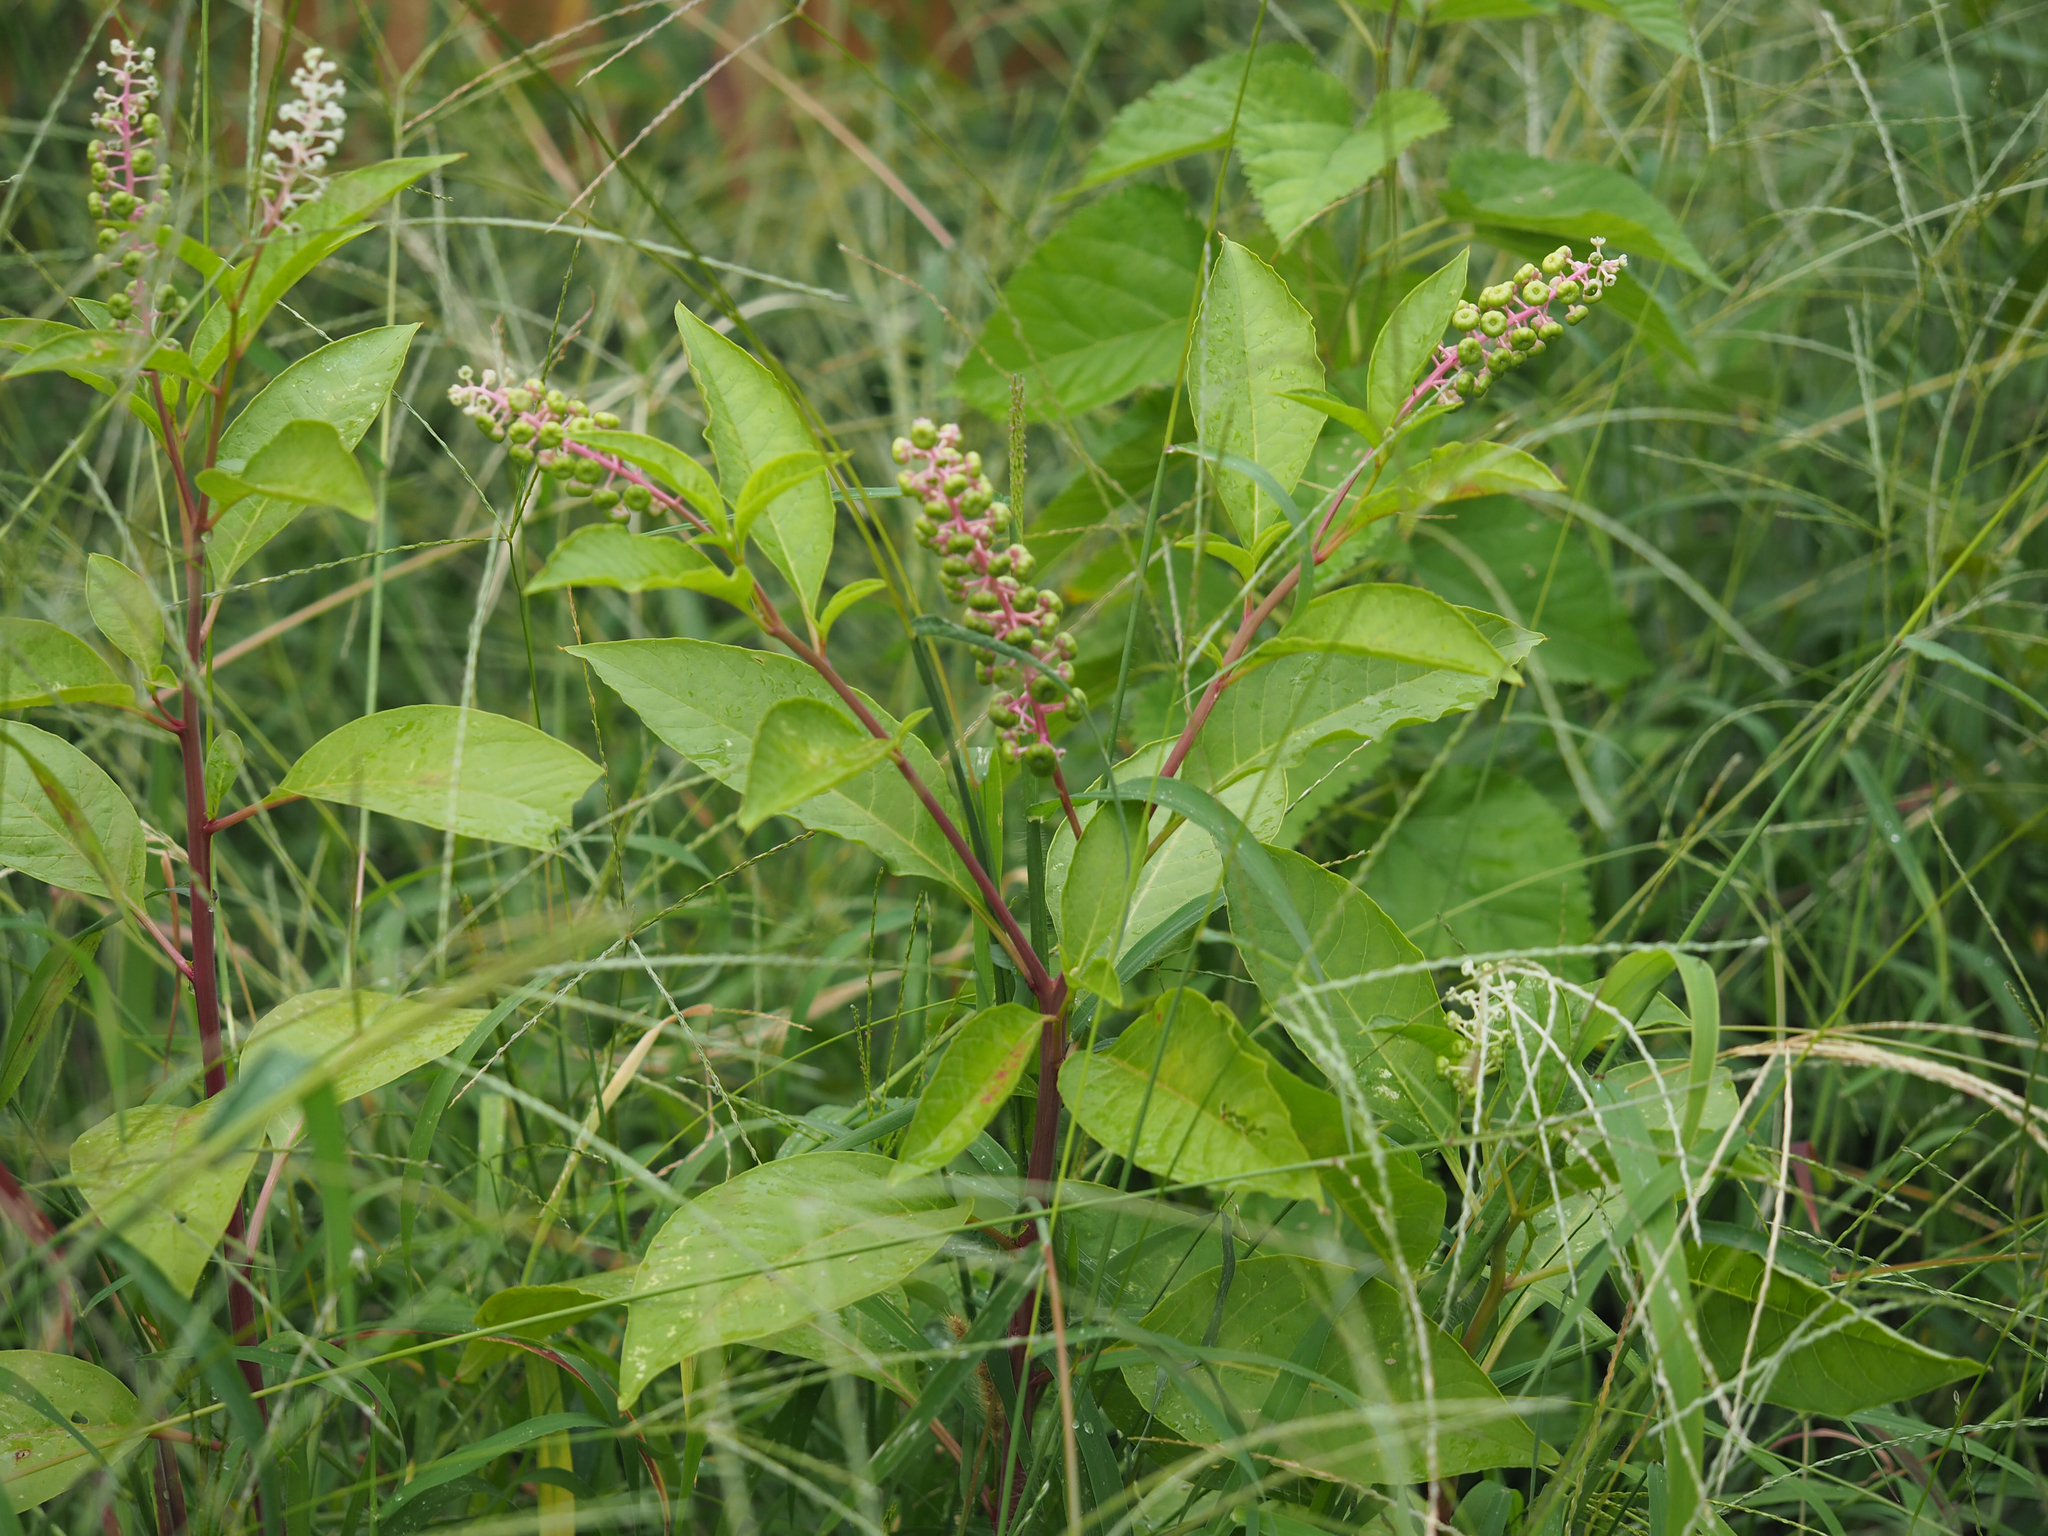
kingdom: Plantae
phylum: Tracheophyta
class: Magnoliopsida
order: Caryophyllales
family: Phytolaccaceae
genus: Phytolacca
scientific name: Phytolacca americana
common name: American pokeweed
